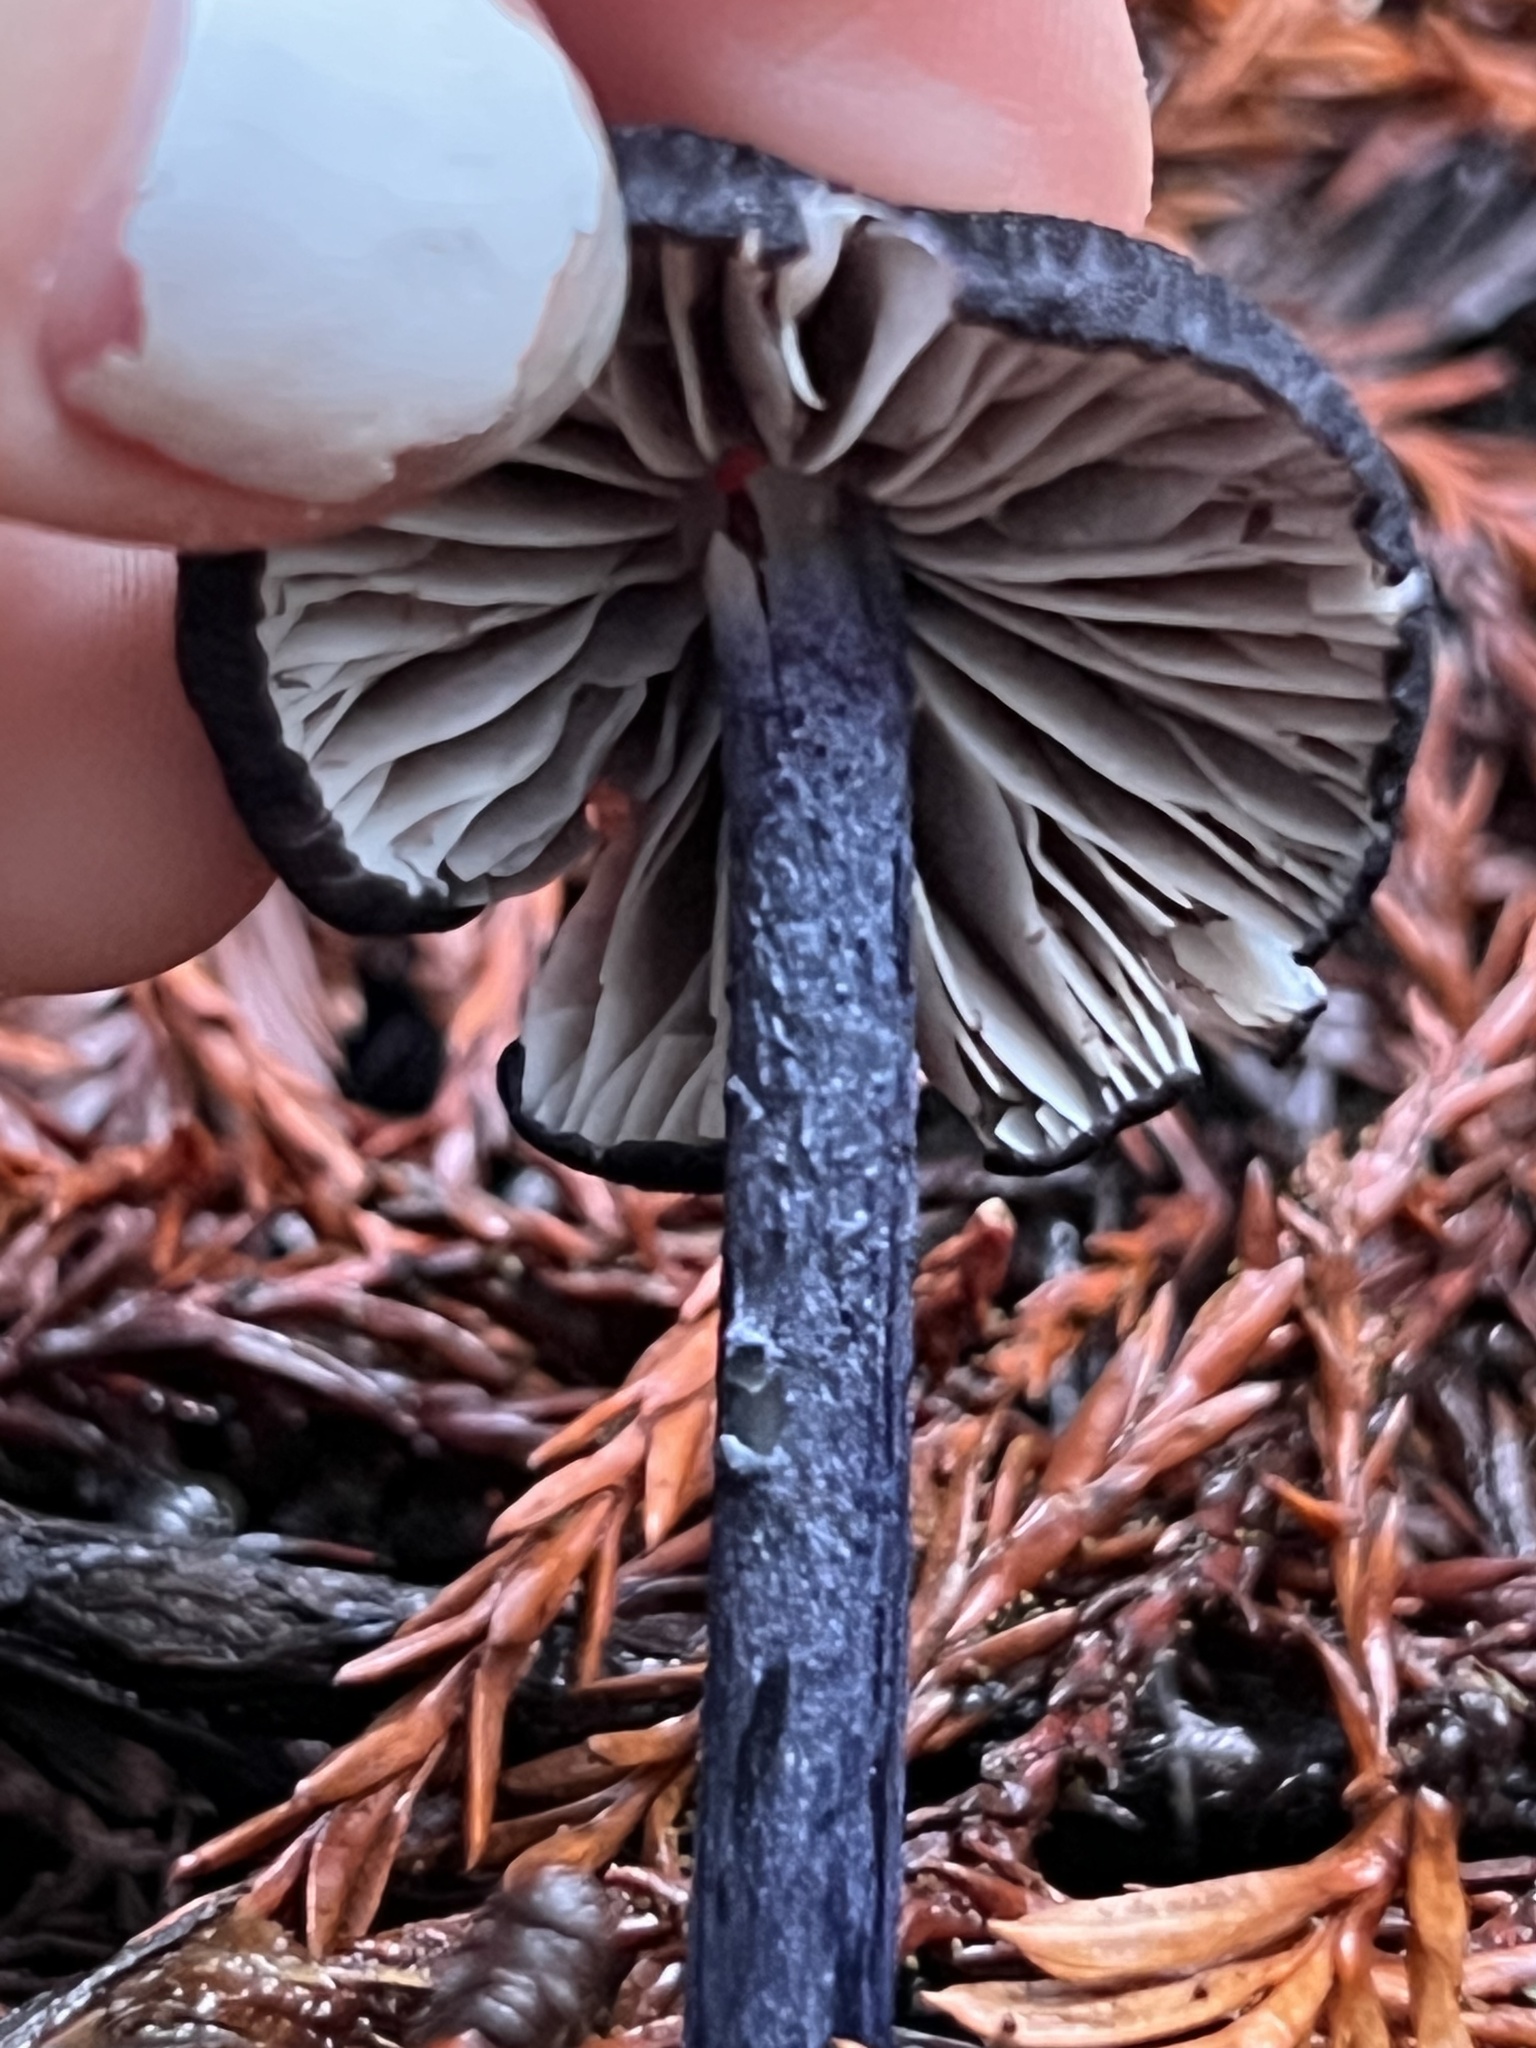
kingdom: Fungi
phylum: Basidiomycota
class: Agaricomycetes
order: Agaricales
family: Entolomataceae
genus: Entoloma
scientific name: Entoloma pigmentosipes
